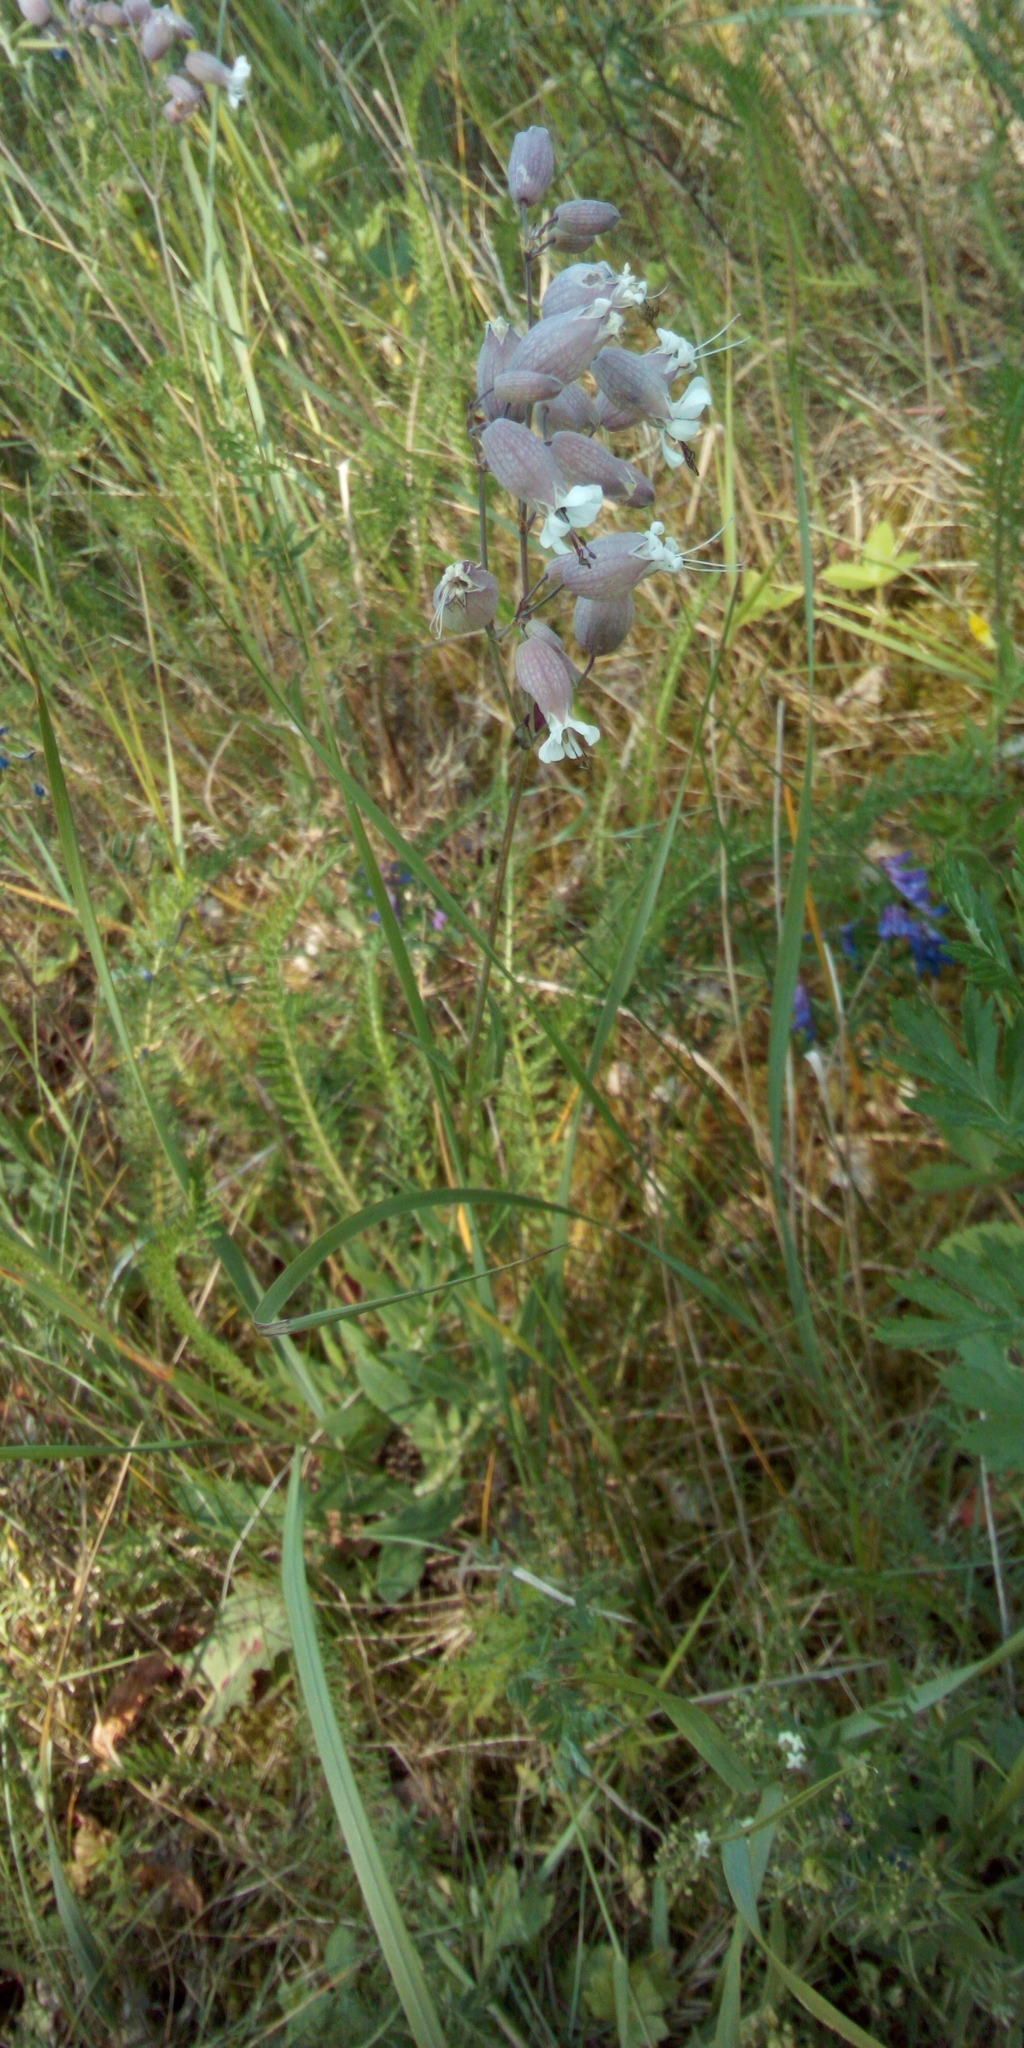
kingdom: Plantae
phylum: Tracheophyta
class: Magnoliopsida
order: Caryophyllales
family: Caryophyllaceae
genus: Silene
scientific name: Silene vulgaris
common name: Bladder campion
